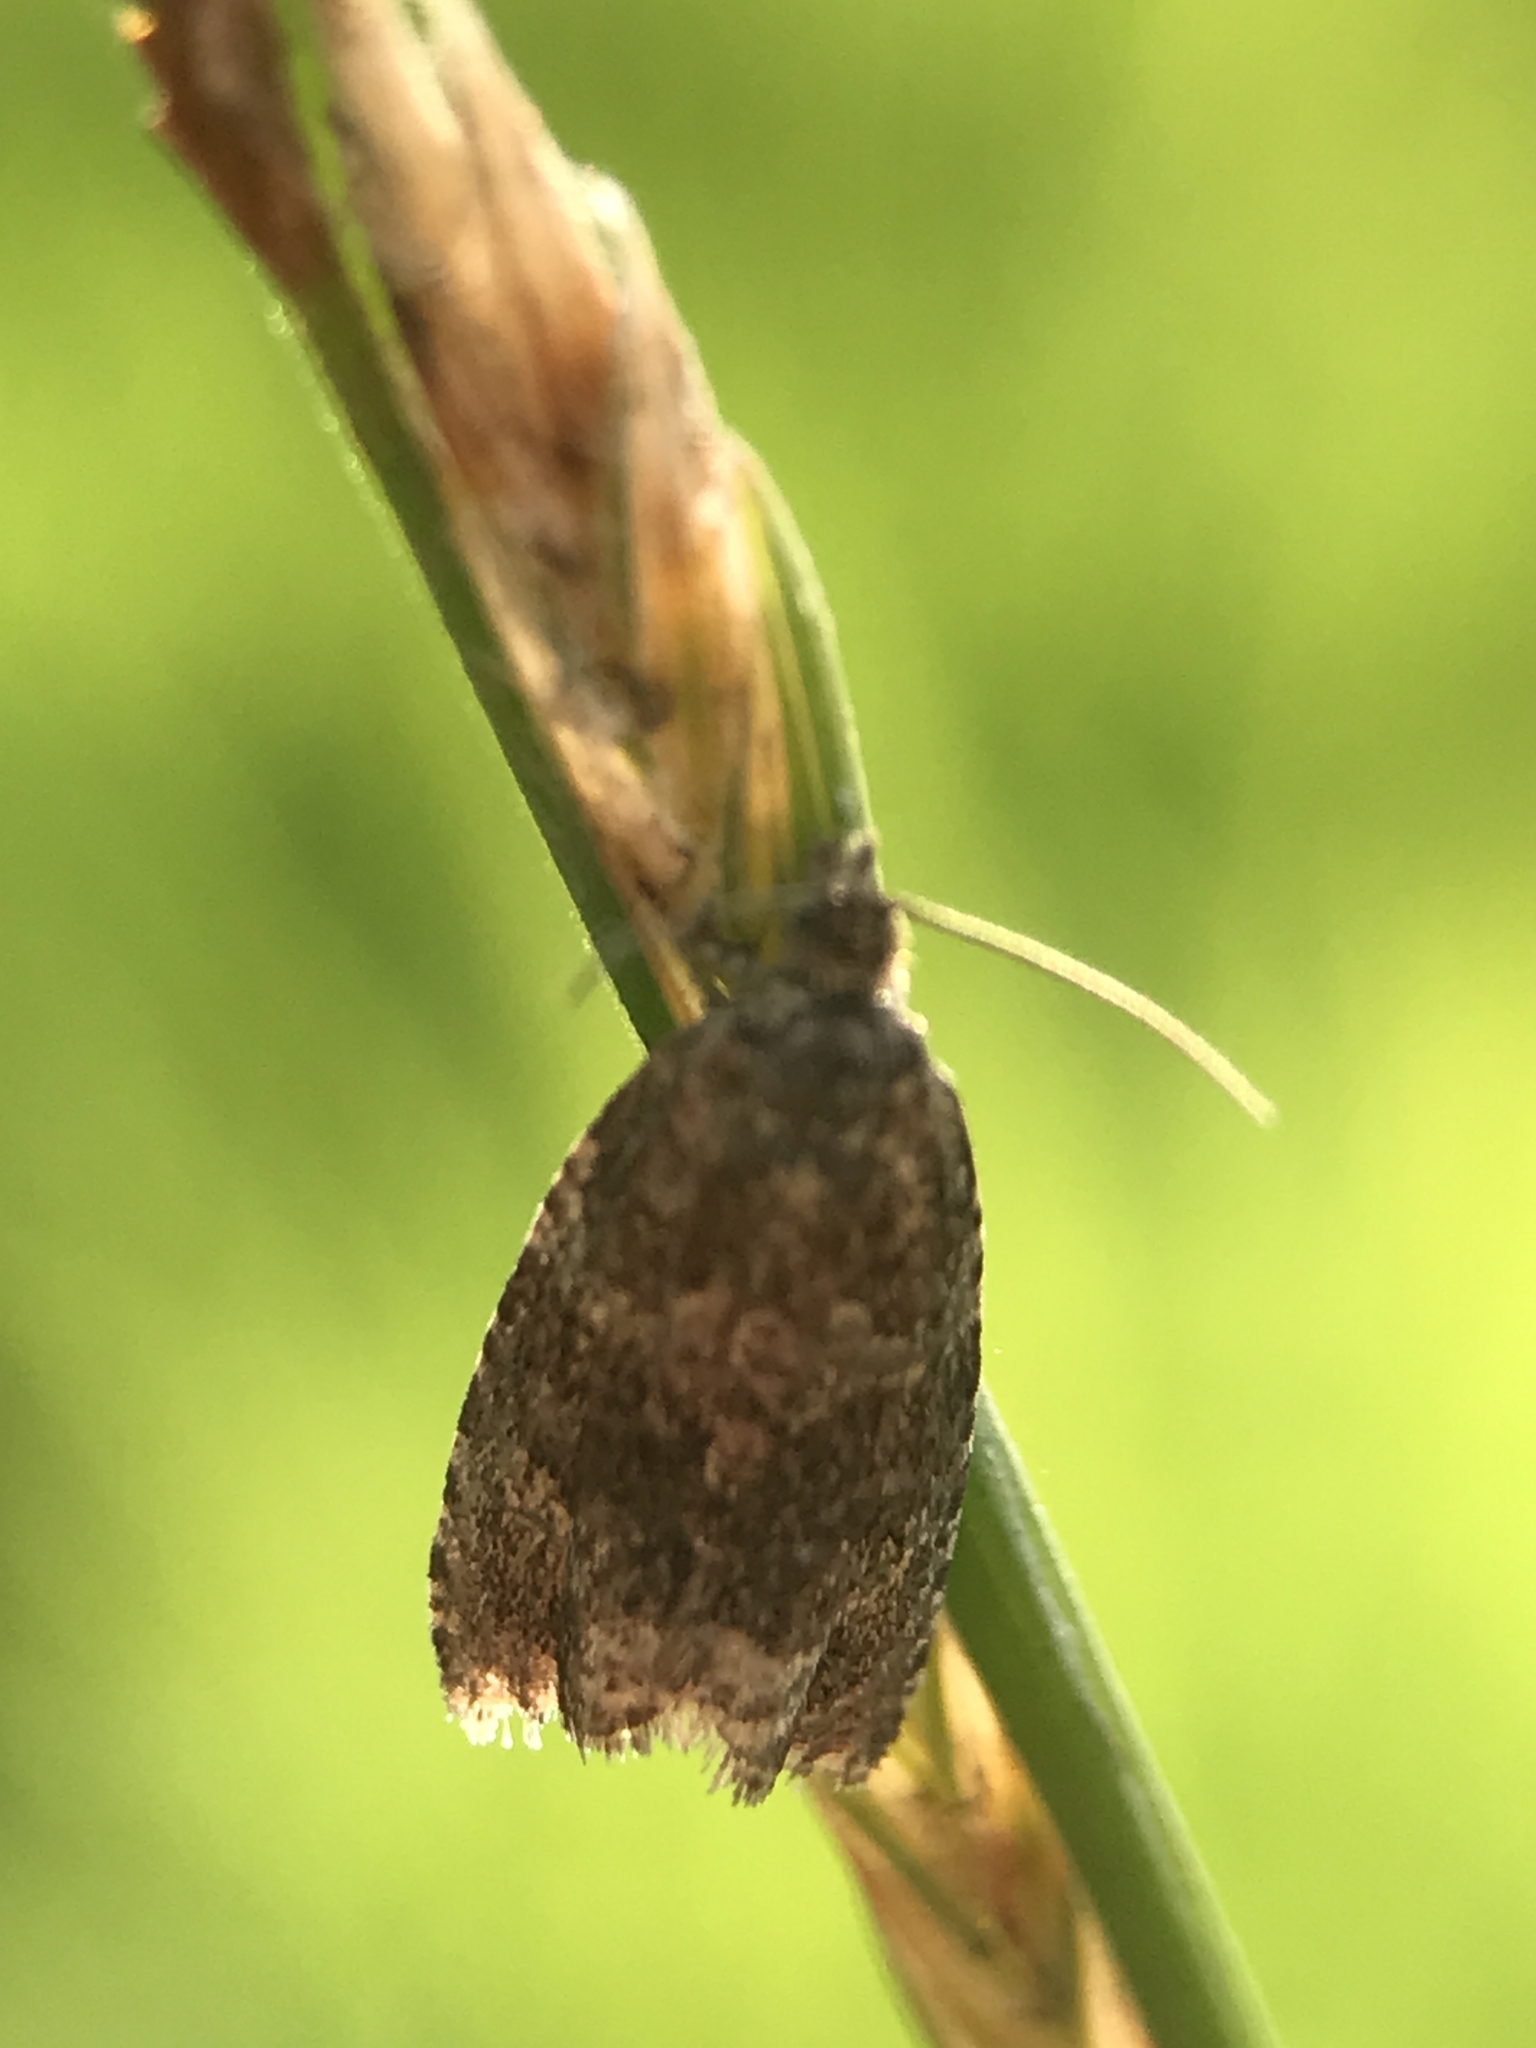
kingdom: Animalia
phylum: Arthropoda
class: Insecta
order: Lepidoptera
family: Tortricidae
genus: Syricoris
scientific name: Syricoris lacunana
